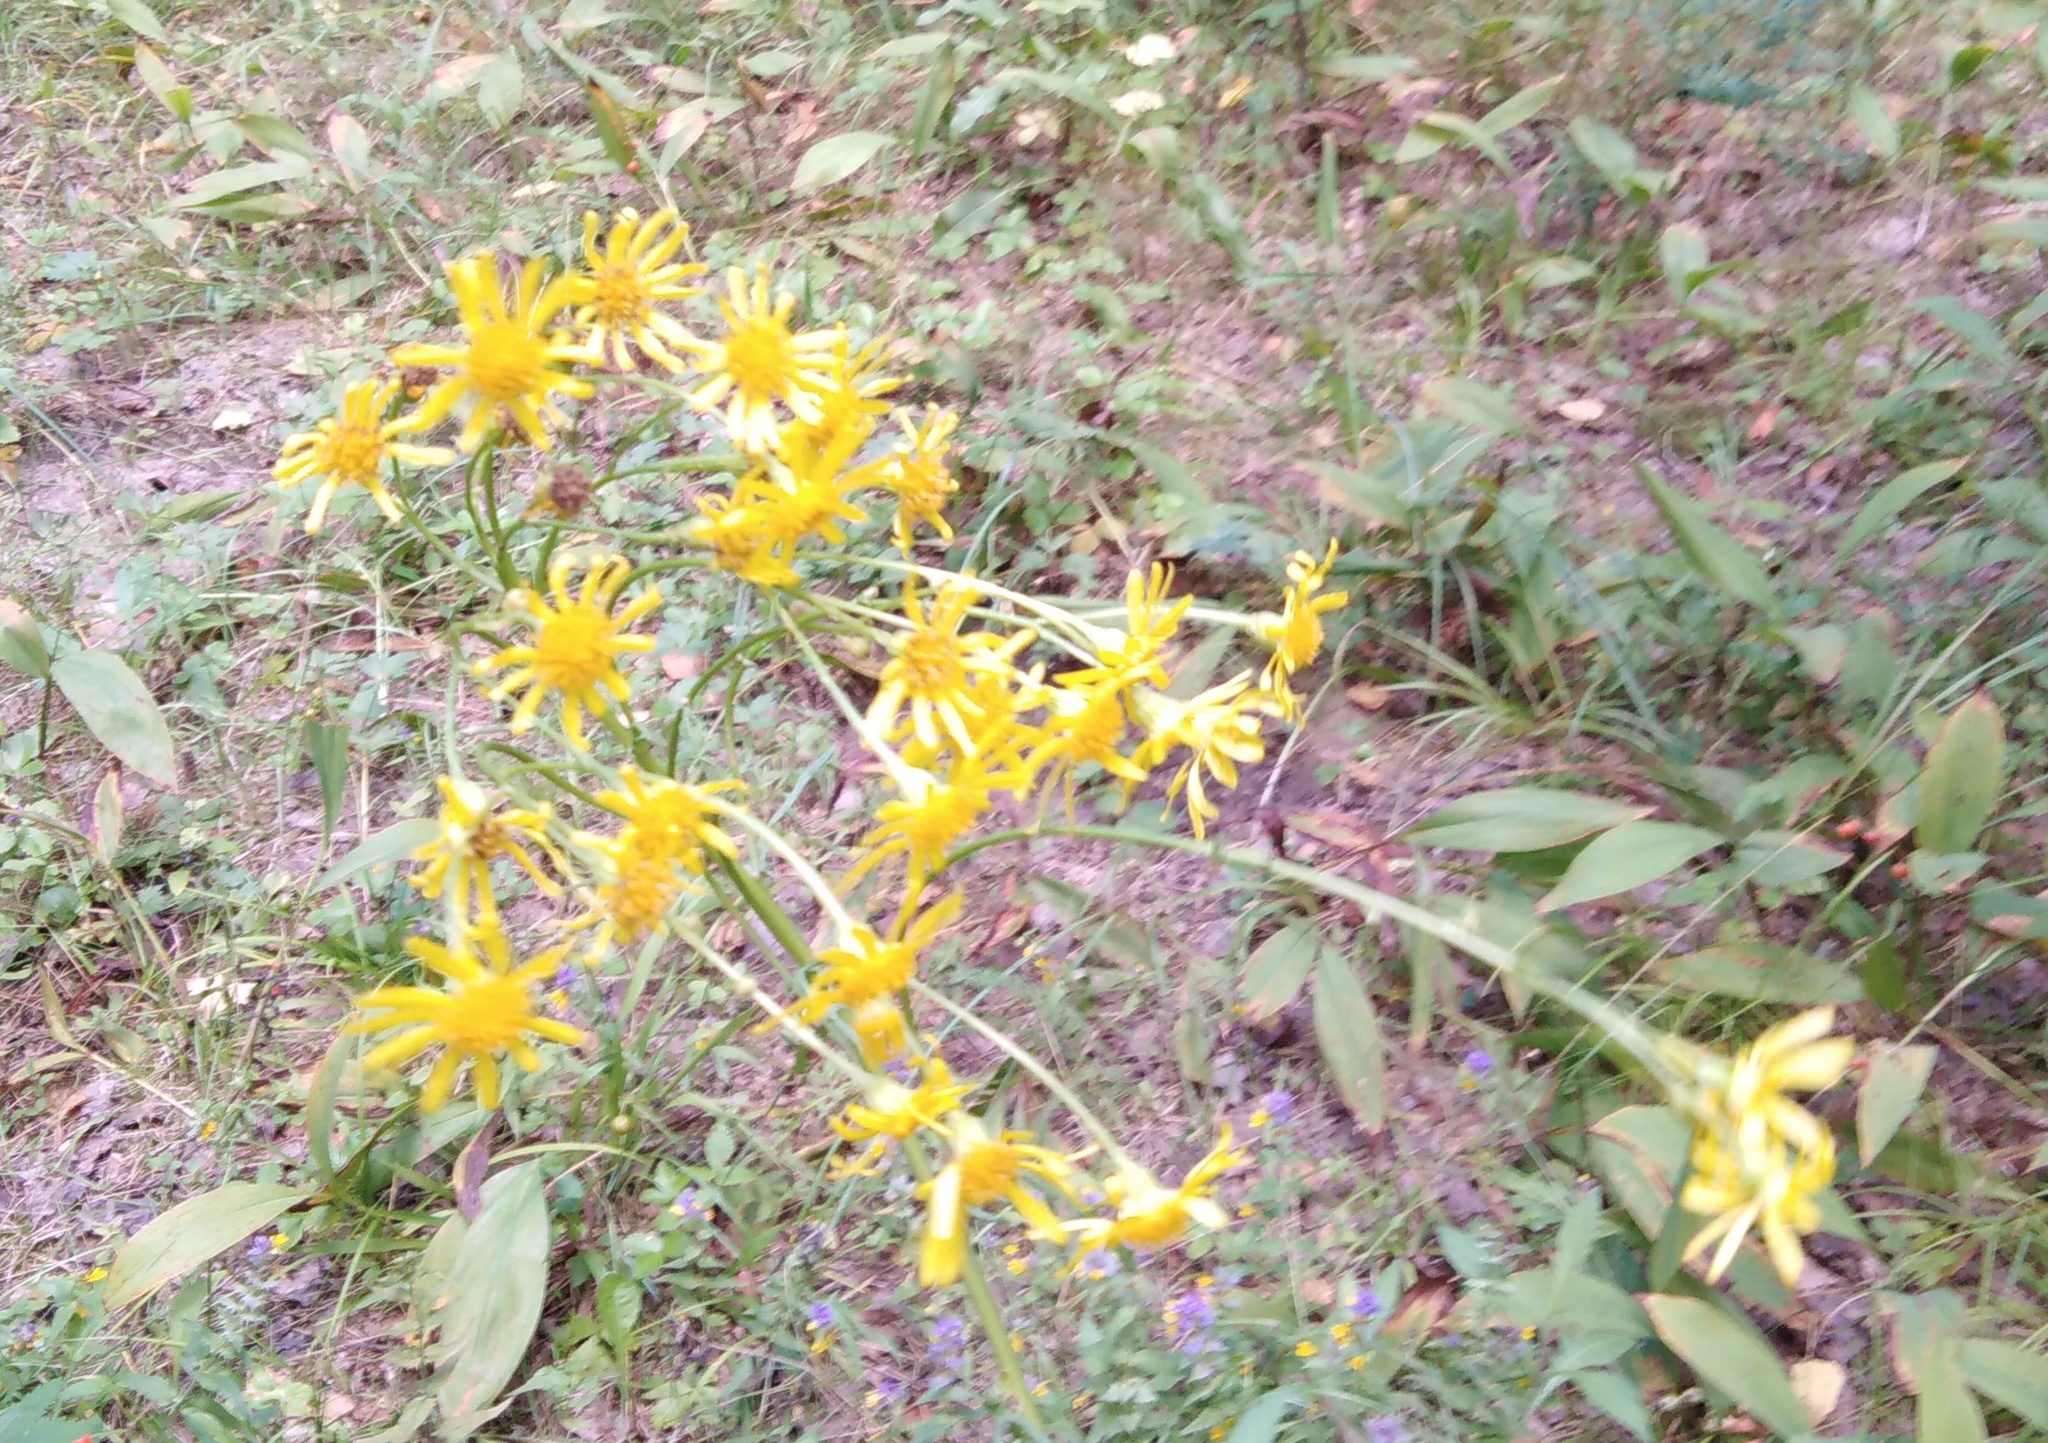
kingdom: Plantae
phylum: Tracheophyta
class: Magnoliopsida
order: Asterales
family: Asteraceae
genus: Jacobaea
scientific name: Jacobaea vulgaris
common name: Stinking willie
